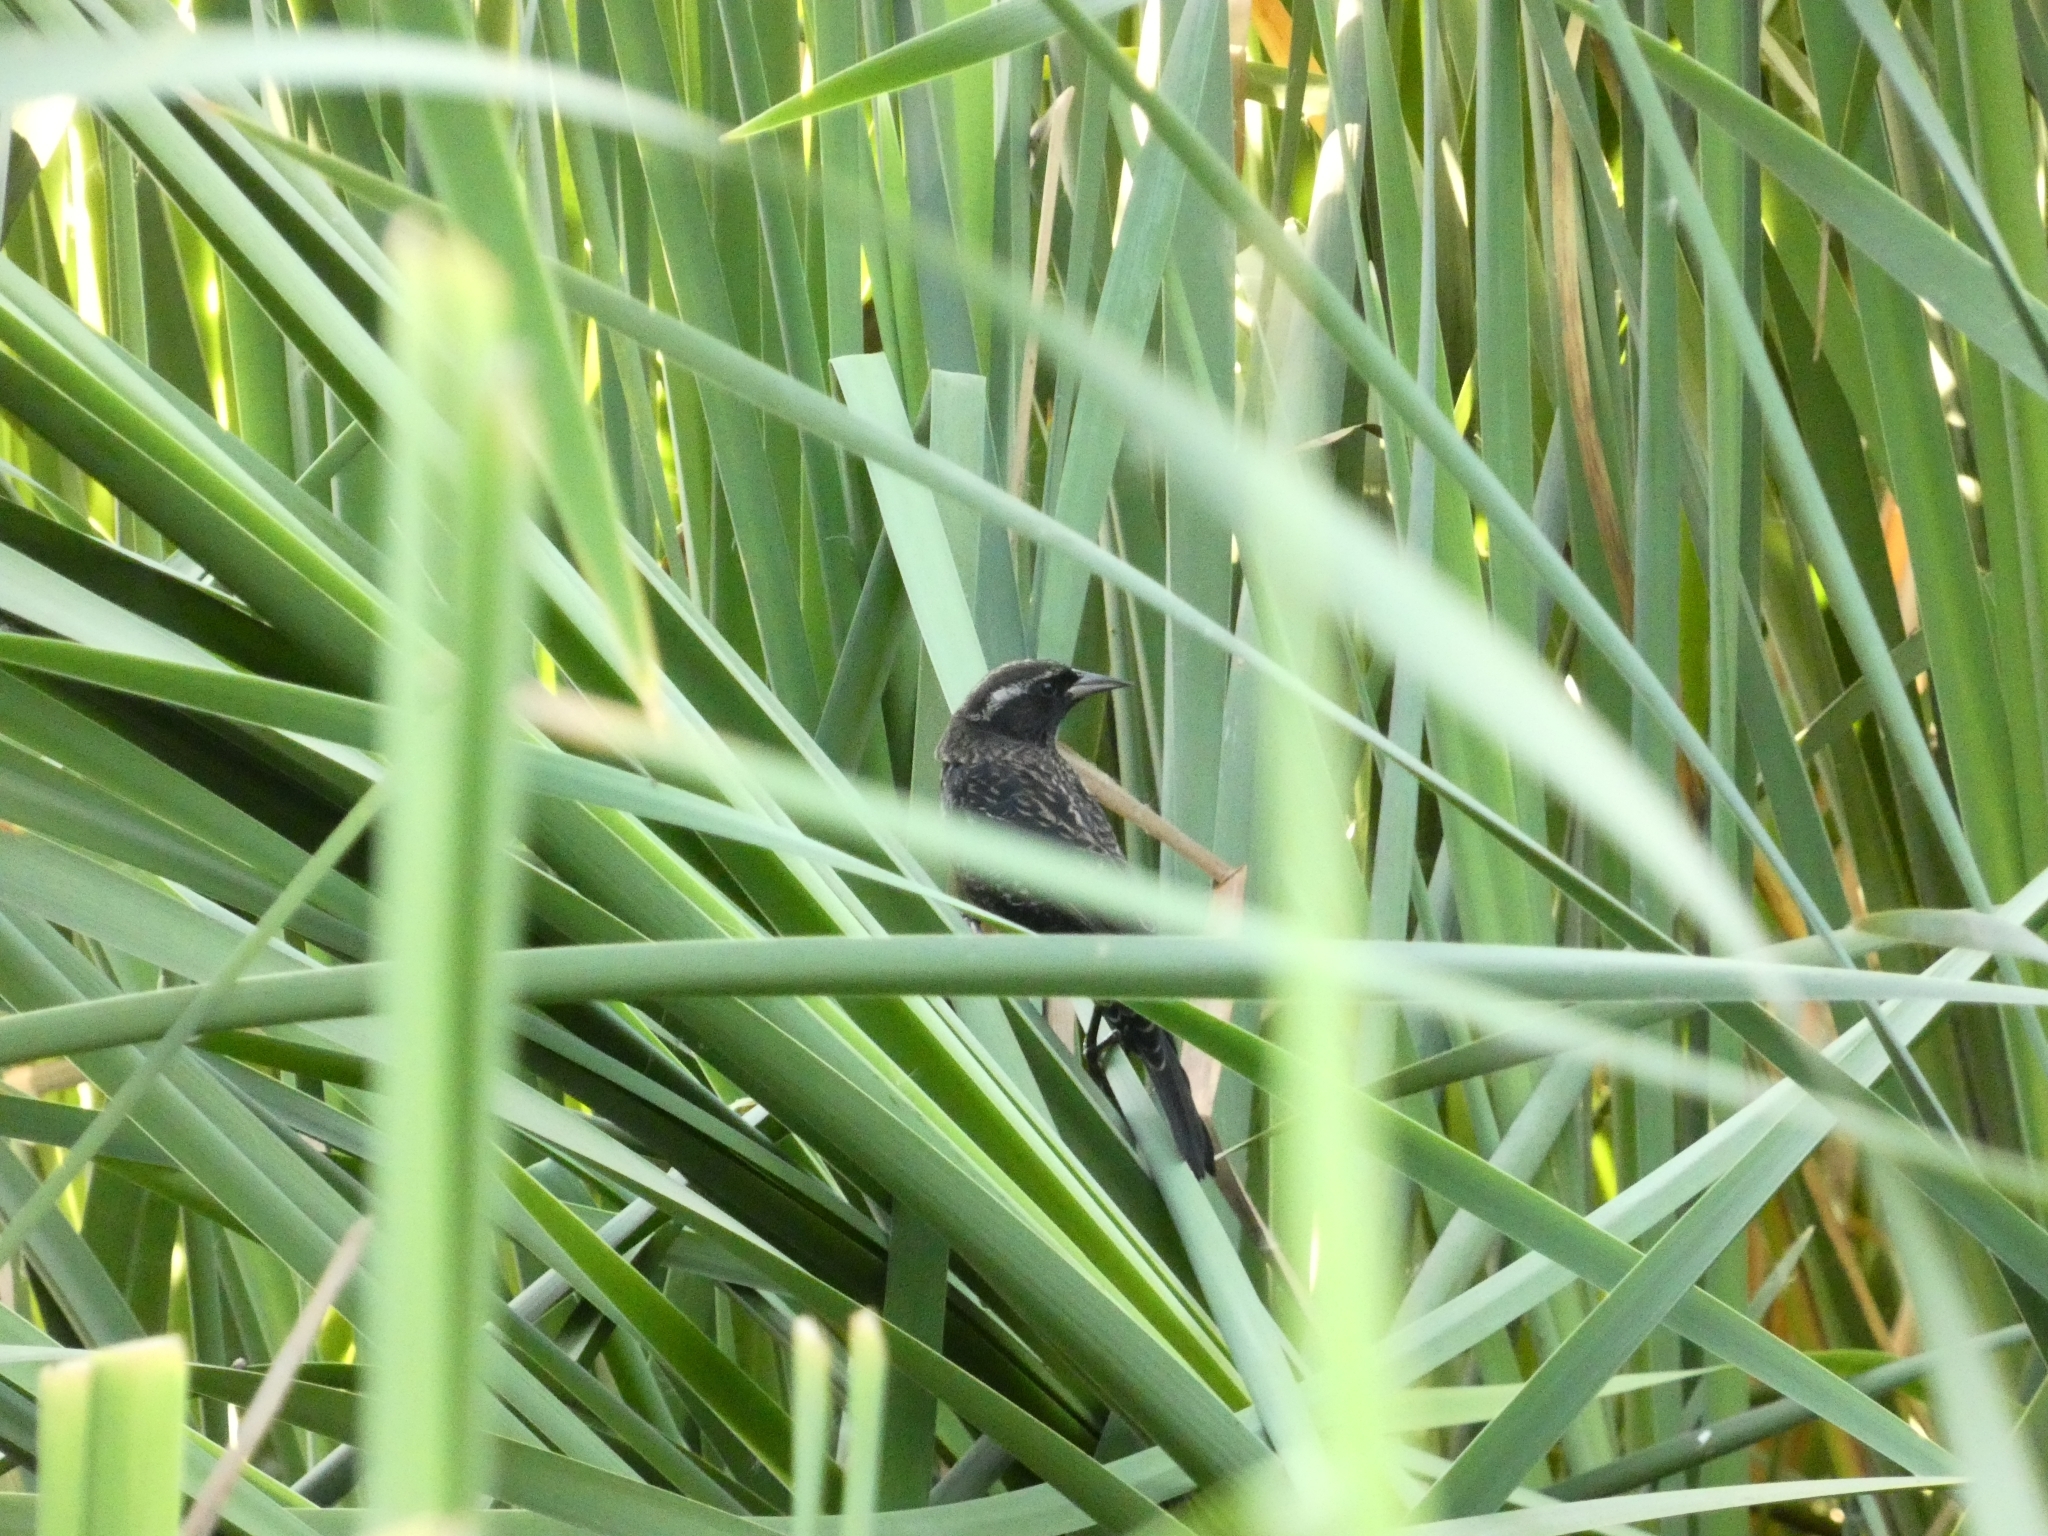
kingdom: Animalia
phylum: Chordata
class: Aves
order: Passeriformes
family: Icteridae
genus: Agelasticus
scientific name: Agelasticus thilius
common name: Yellow-winged blackbird
